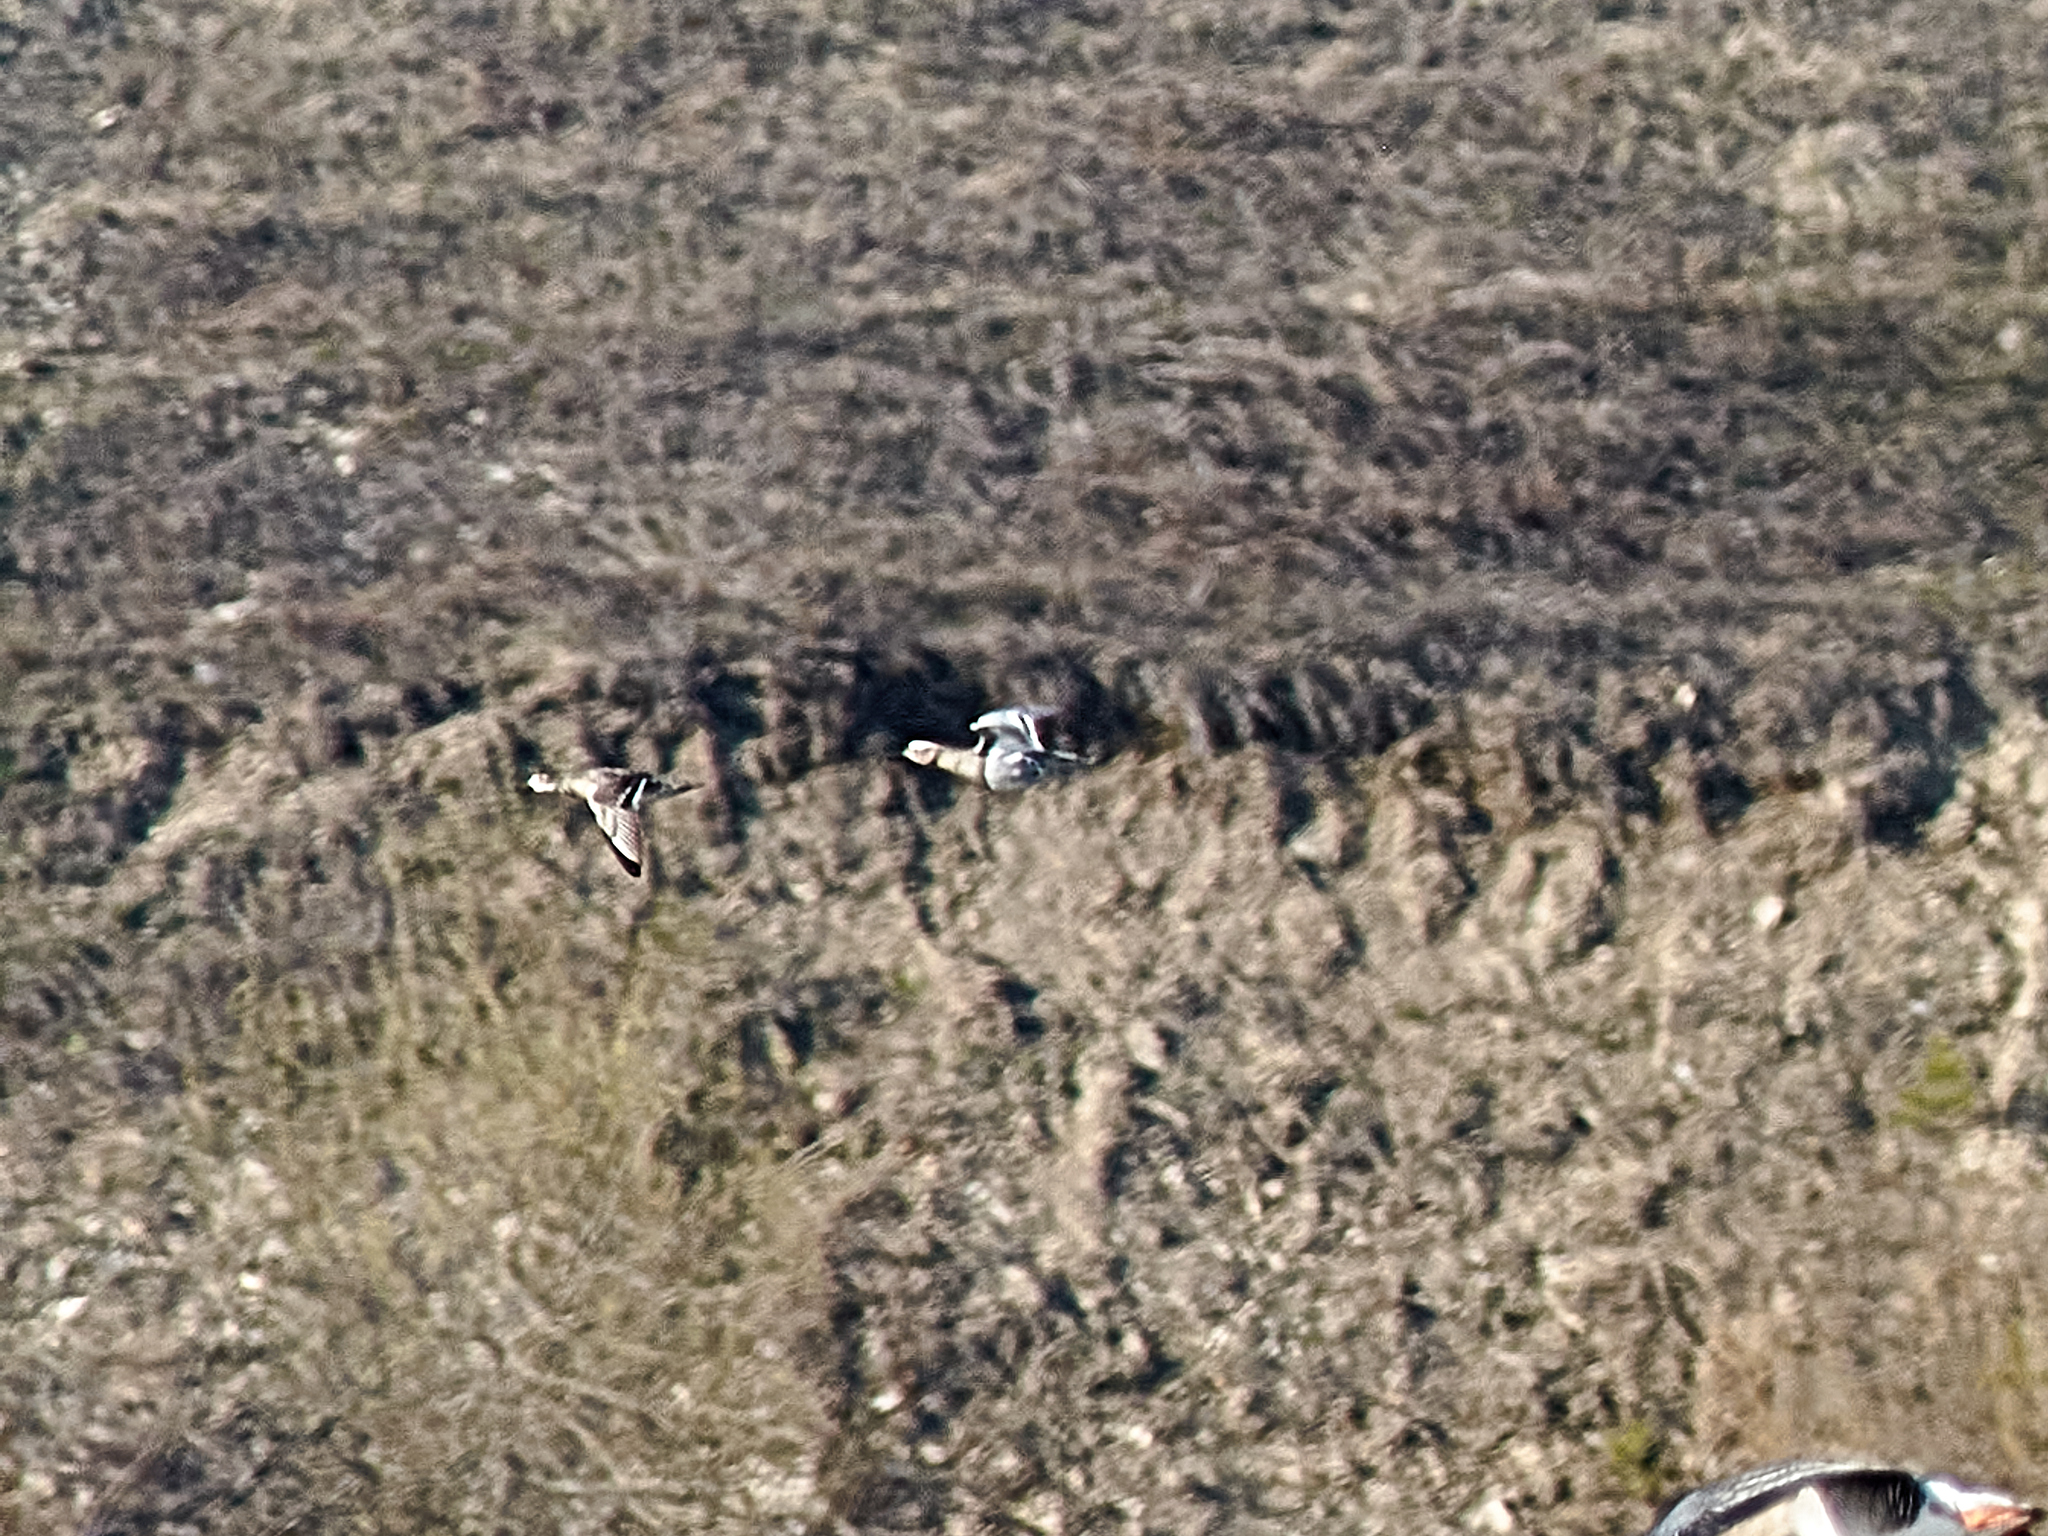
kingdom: Animalia
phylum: Chordata
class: Aves
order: Anseriformes
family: Anatidae
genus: Spatula
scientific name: Spatula querquedula
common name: Garganey
